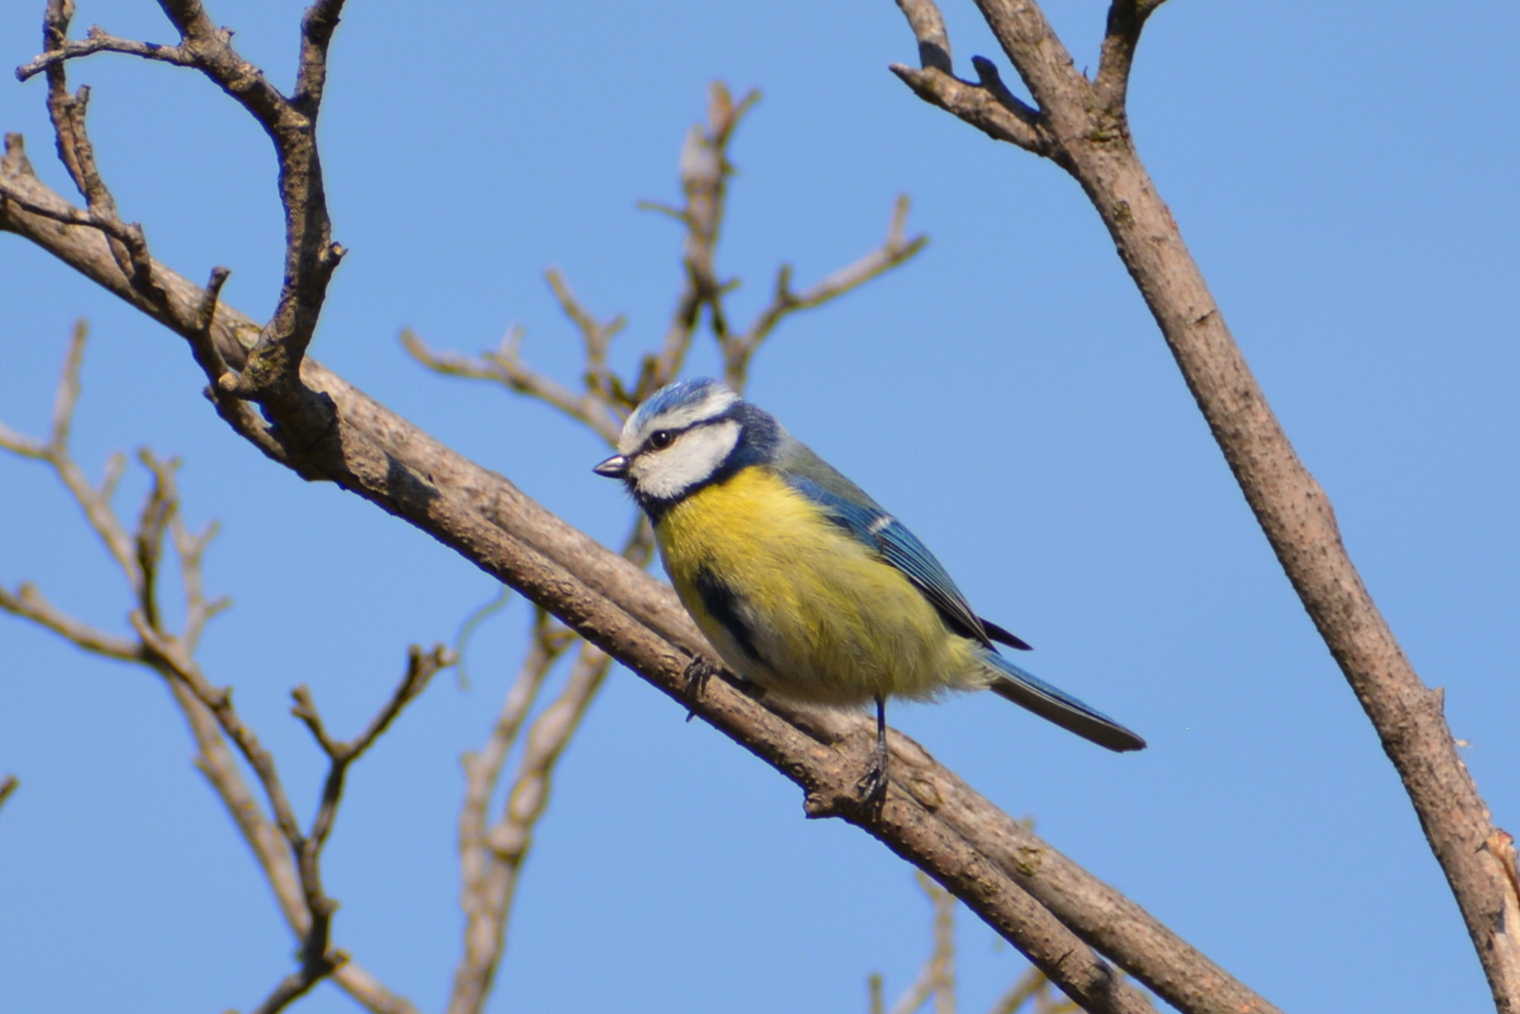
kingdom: Animalia
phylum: Chordata
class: Aves
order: Passeriformes
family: Paridae
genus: Cyanistes
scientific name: Cyanistes caeruleus
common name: Eurasian blue tit
